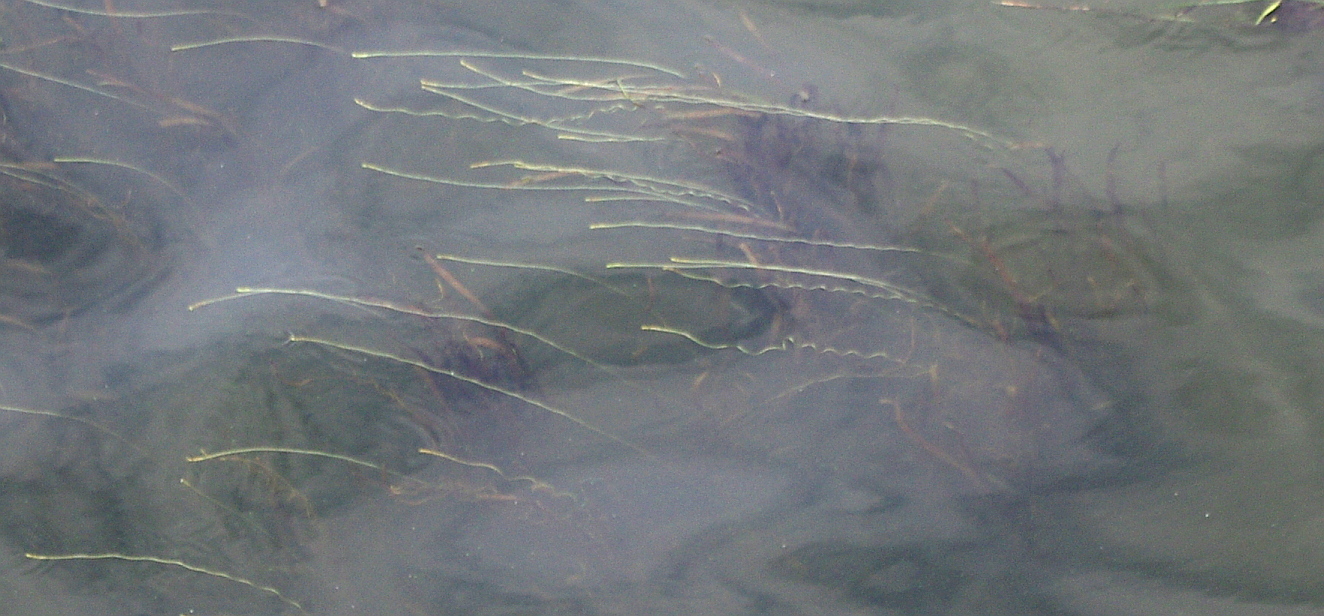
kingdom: Plantae
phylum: Tracheophyta
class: Liliopsida
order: Alismatales
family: Hydrocharitaceae
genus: Vallisneria
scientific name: Vallisneria spiralis
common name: Tapegrass
